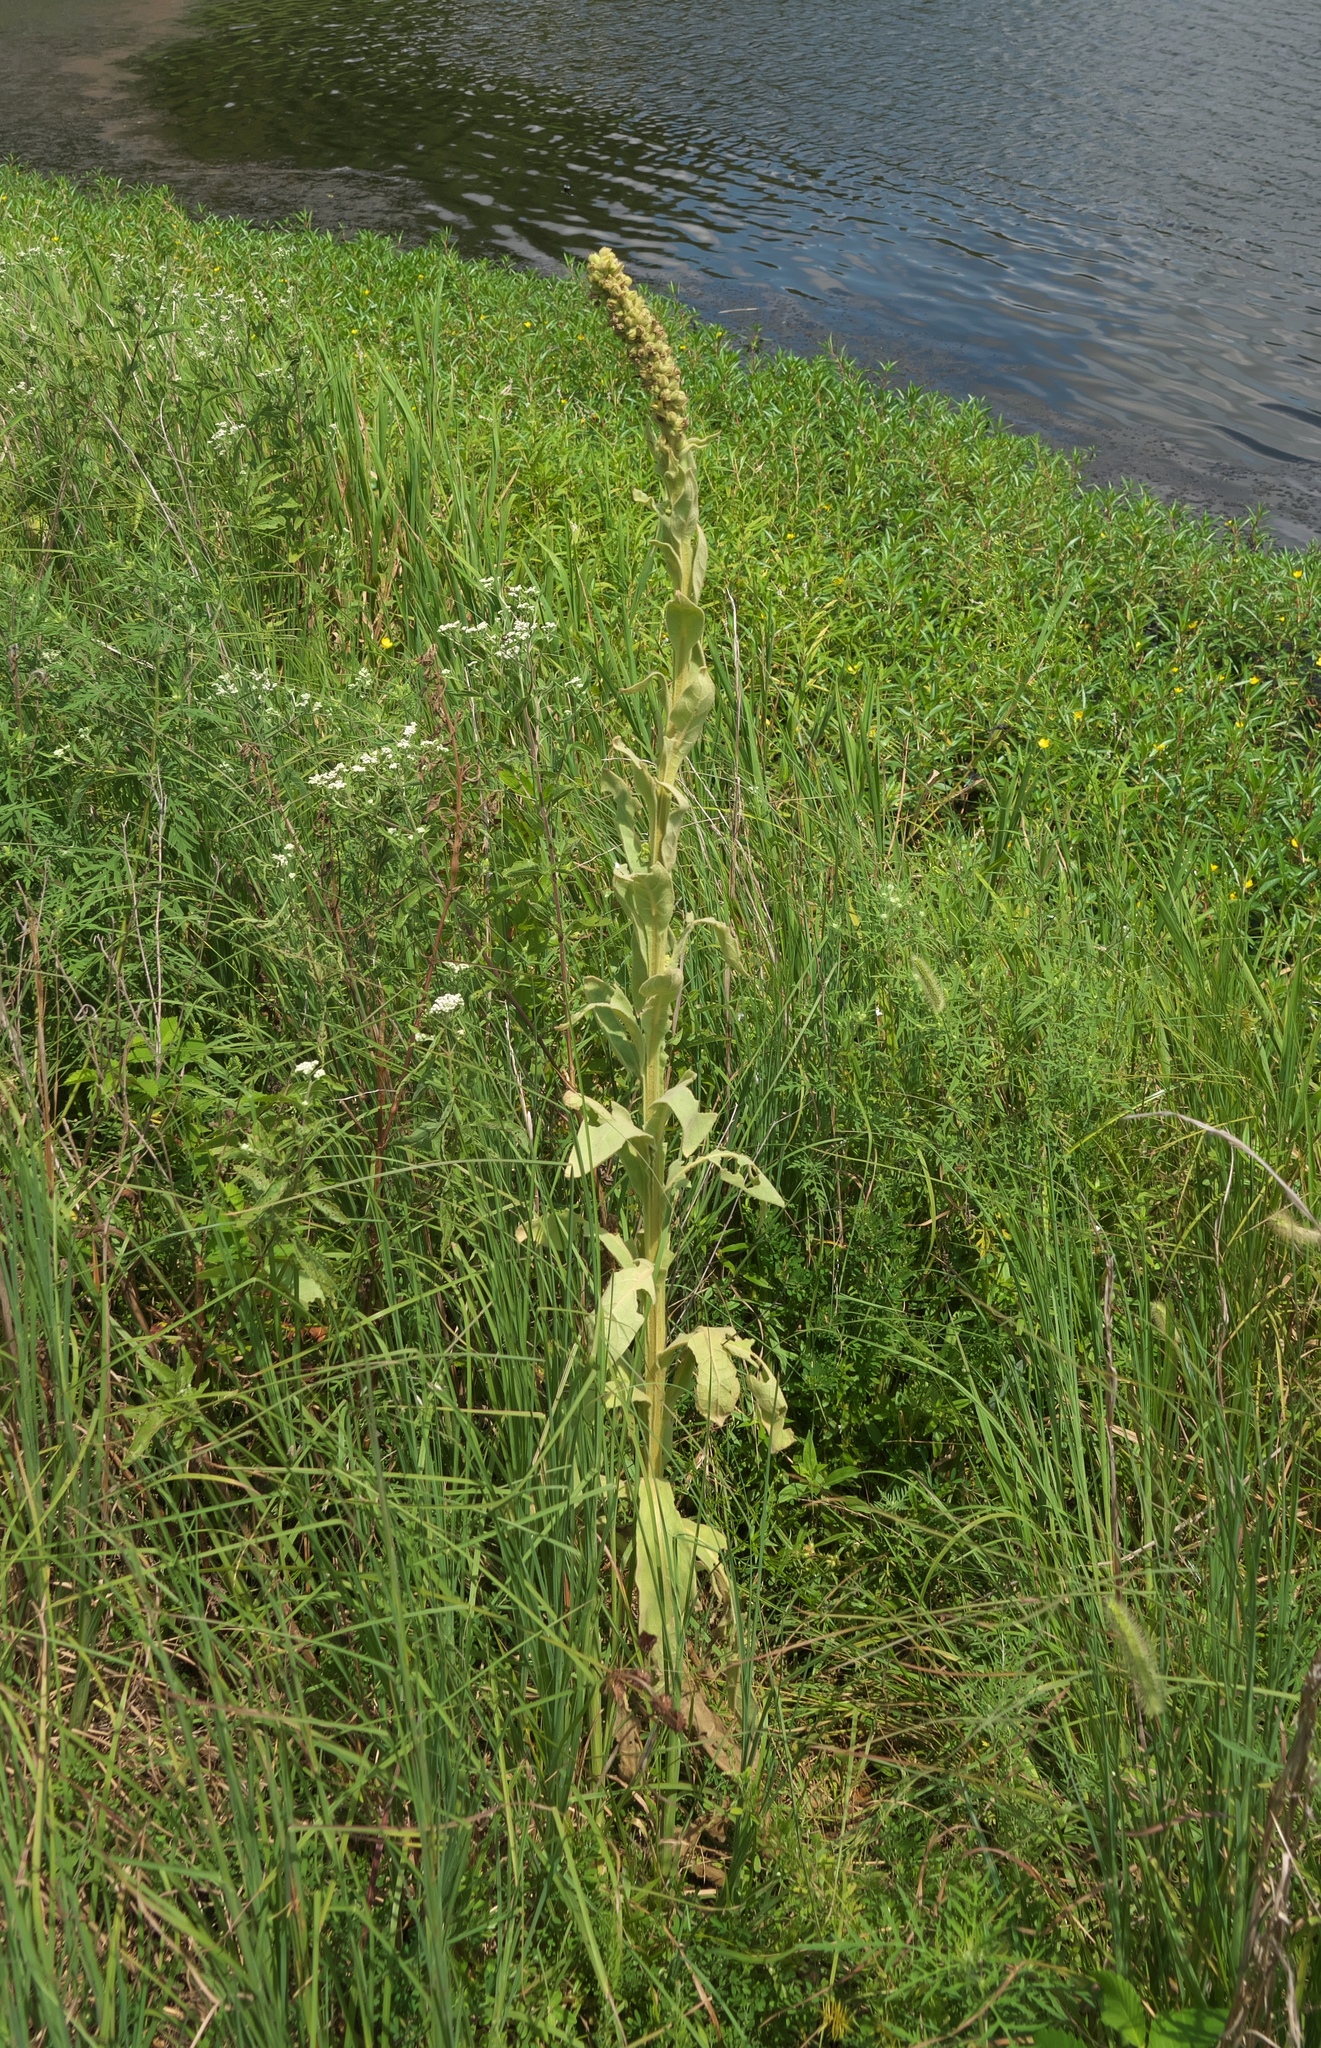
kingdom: Plantae
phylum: Tracheophyta
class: Magnoliopsida
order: Lamiales
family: Scrophulariaceae
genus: Verbascum
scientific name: Verbascum thapsus
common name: Common mullein
